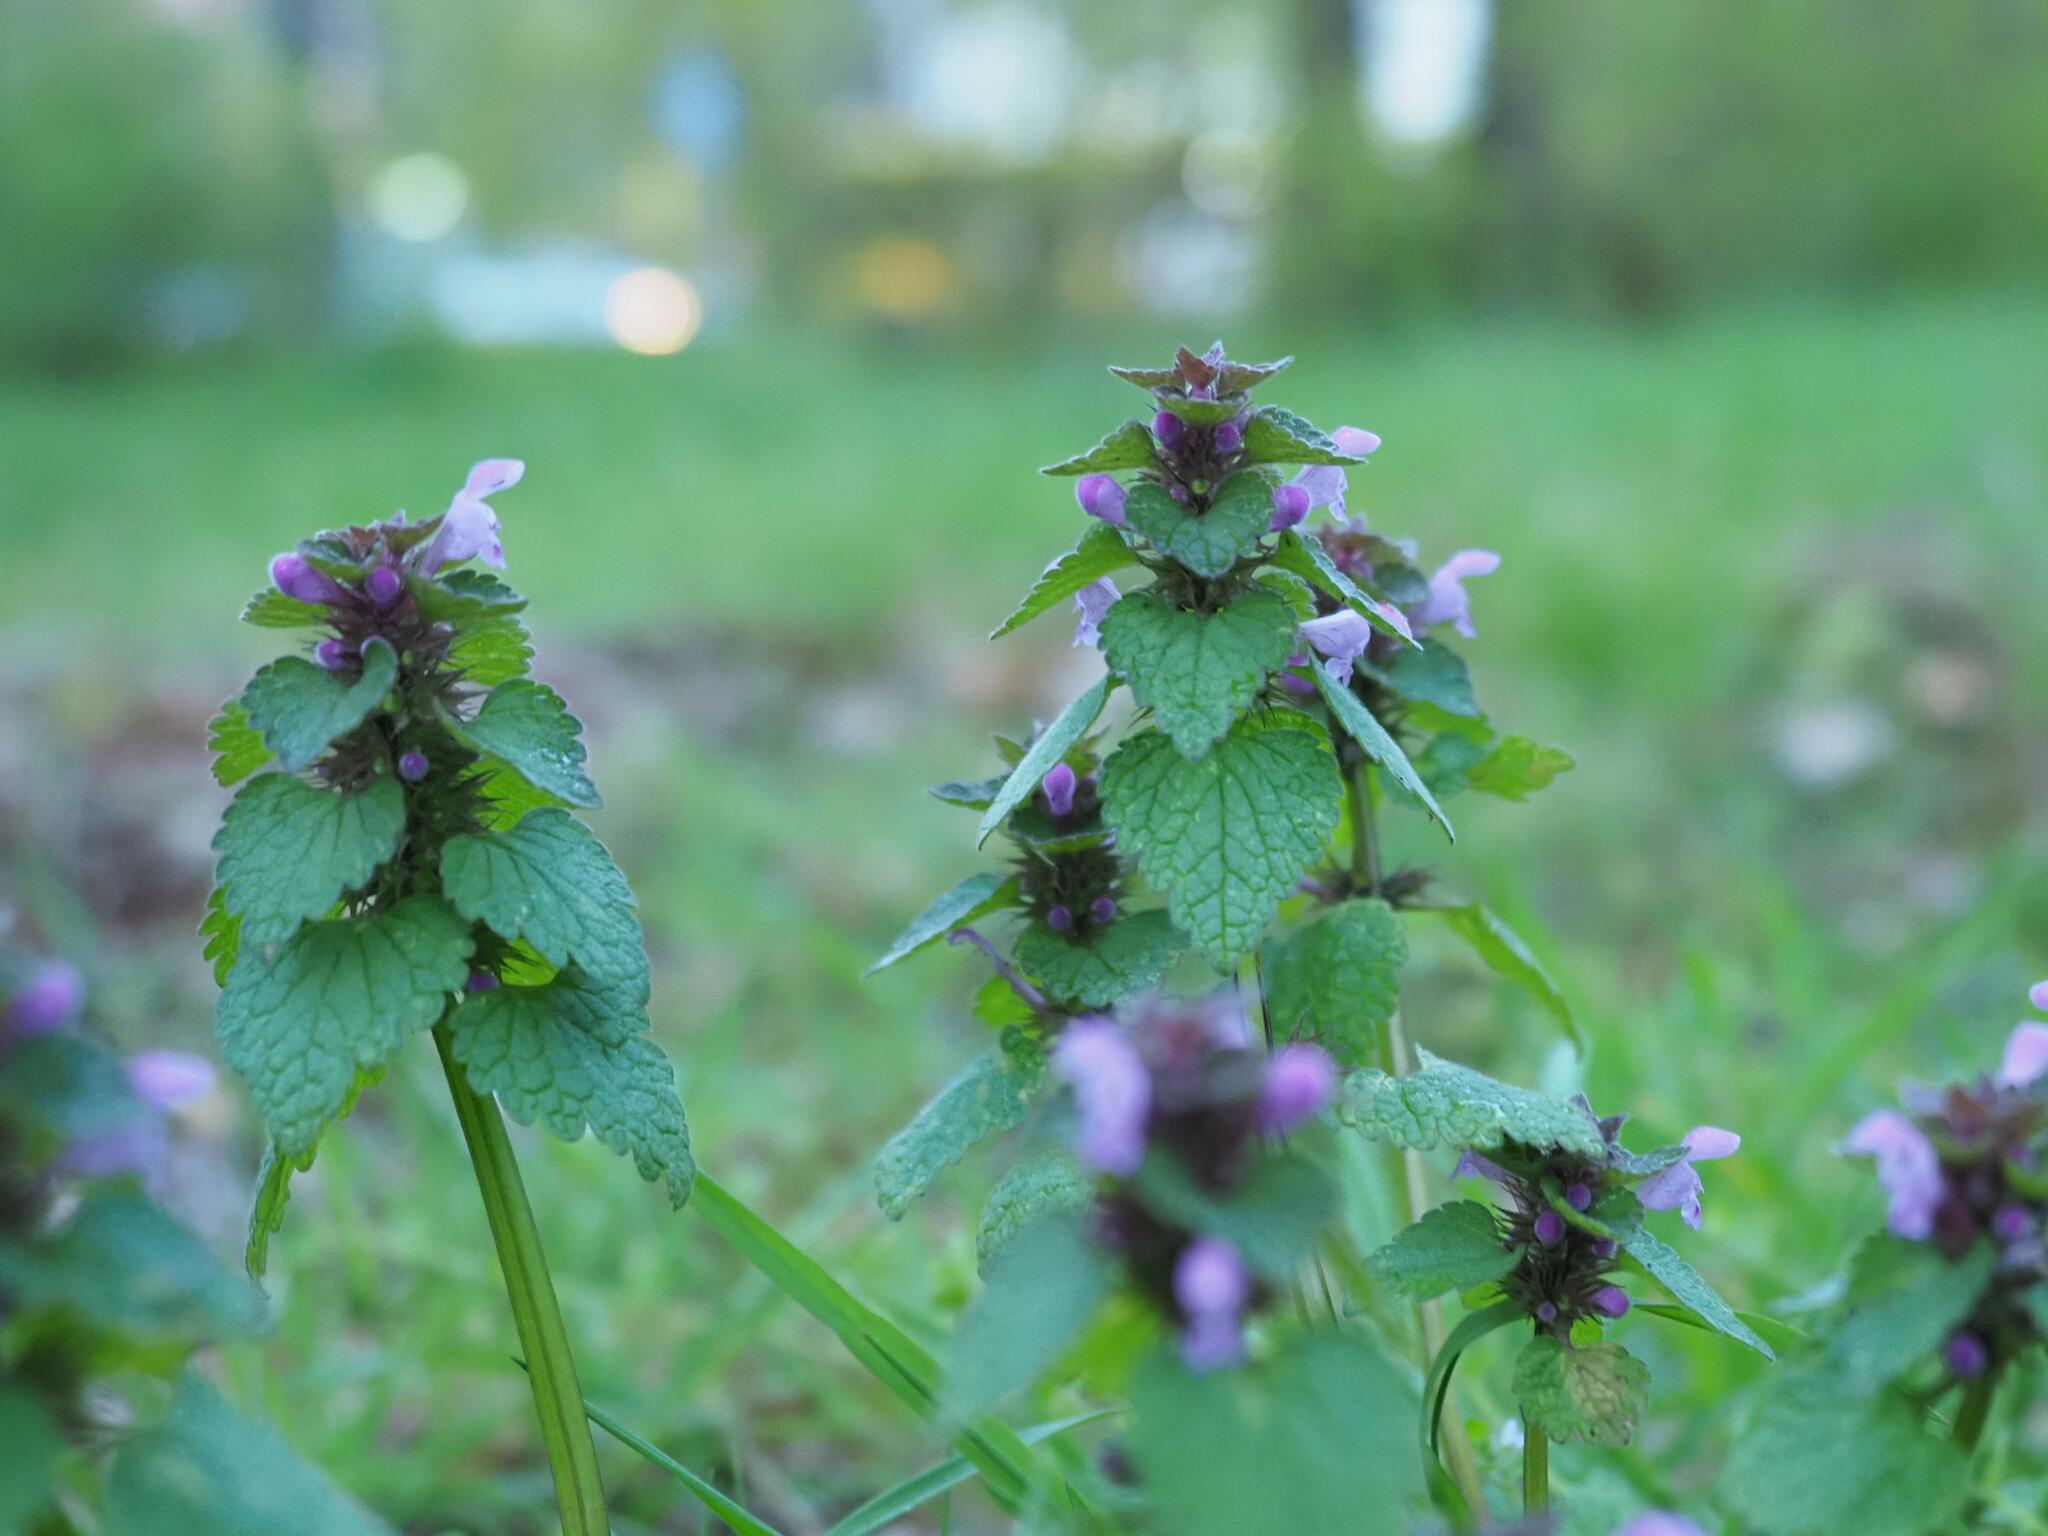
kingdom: Plantae
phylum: Tracheophyta
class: Magnoliopsida
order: Lamiales
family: Lamiaceae
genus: Lamium
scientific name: Lamium purpureum
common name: Red dead-nettle
